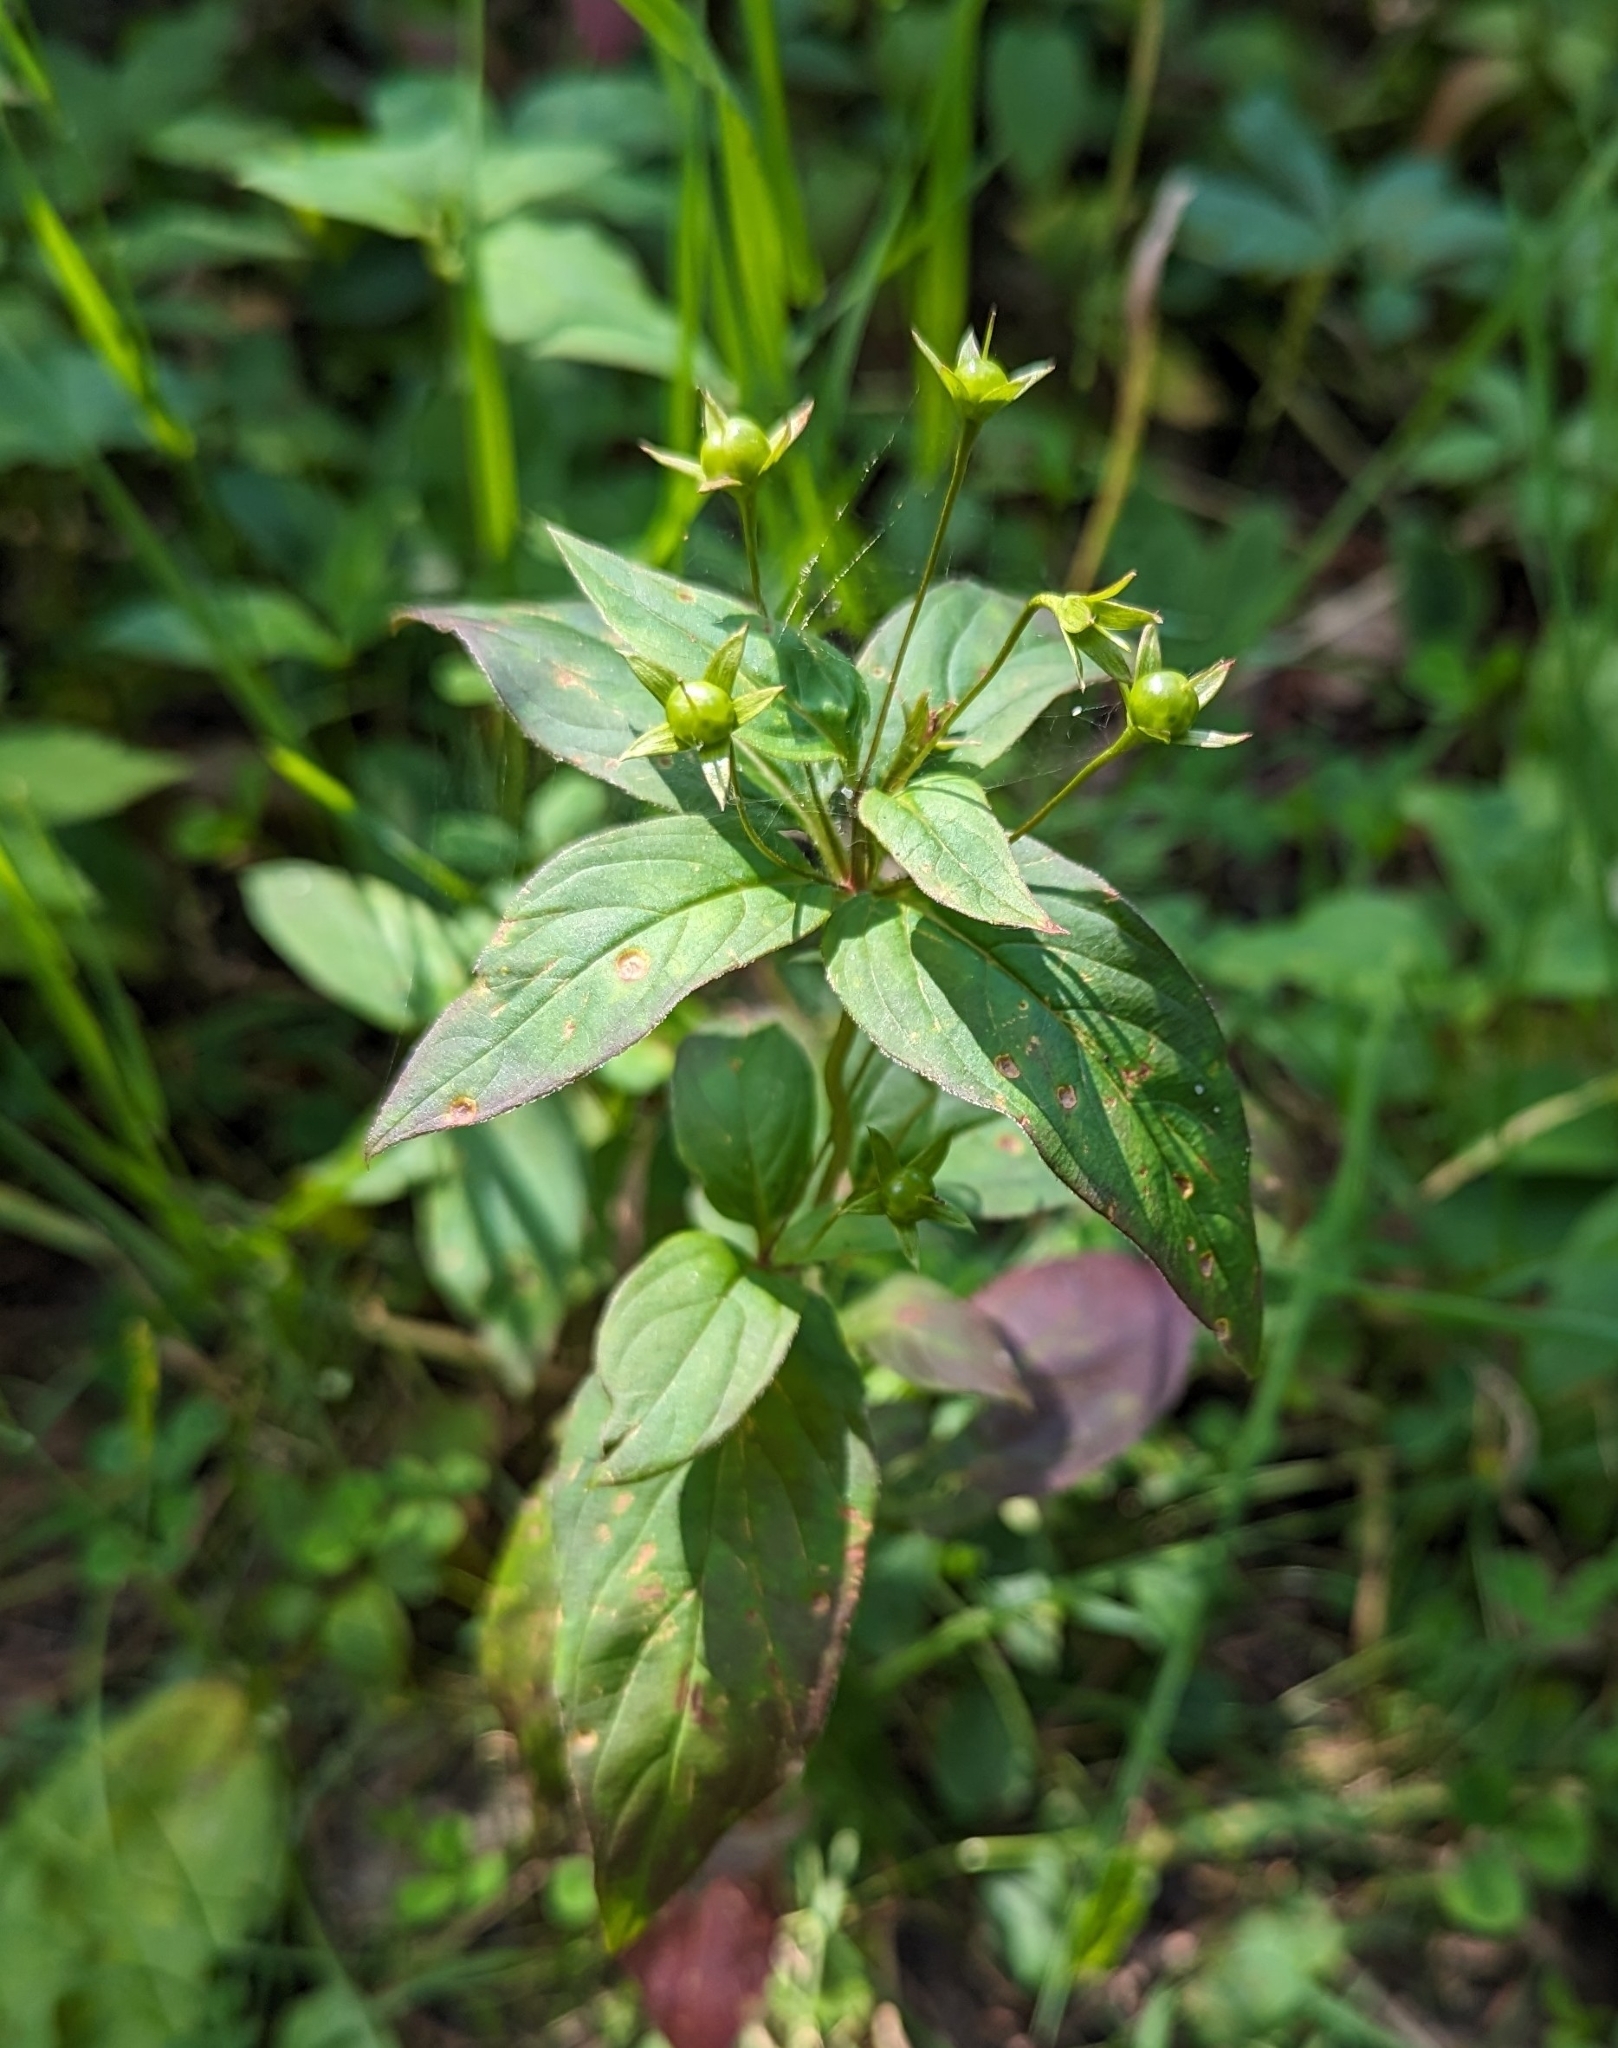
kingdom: Plantae
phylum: Tracheophyta
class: Magnoliopsida
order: Ericales
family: Primulaceae
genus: Lysimachia
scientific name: Lysimachia ciliata
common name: Fringed loosestrife
